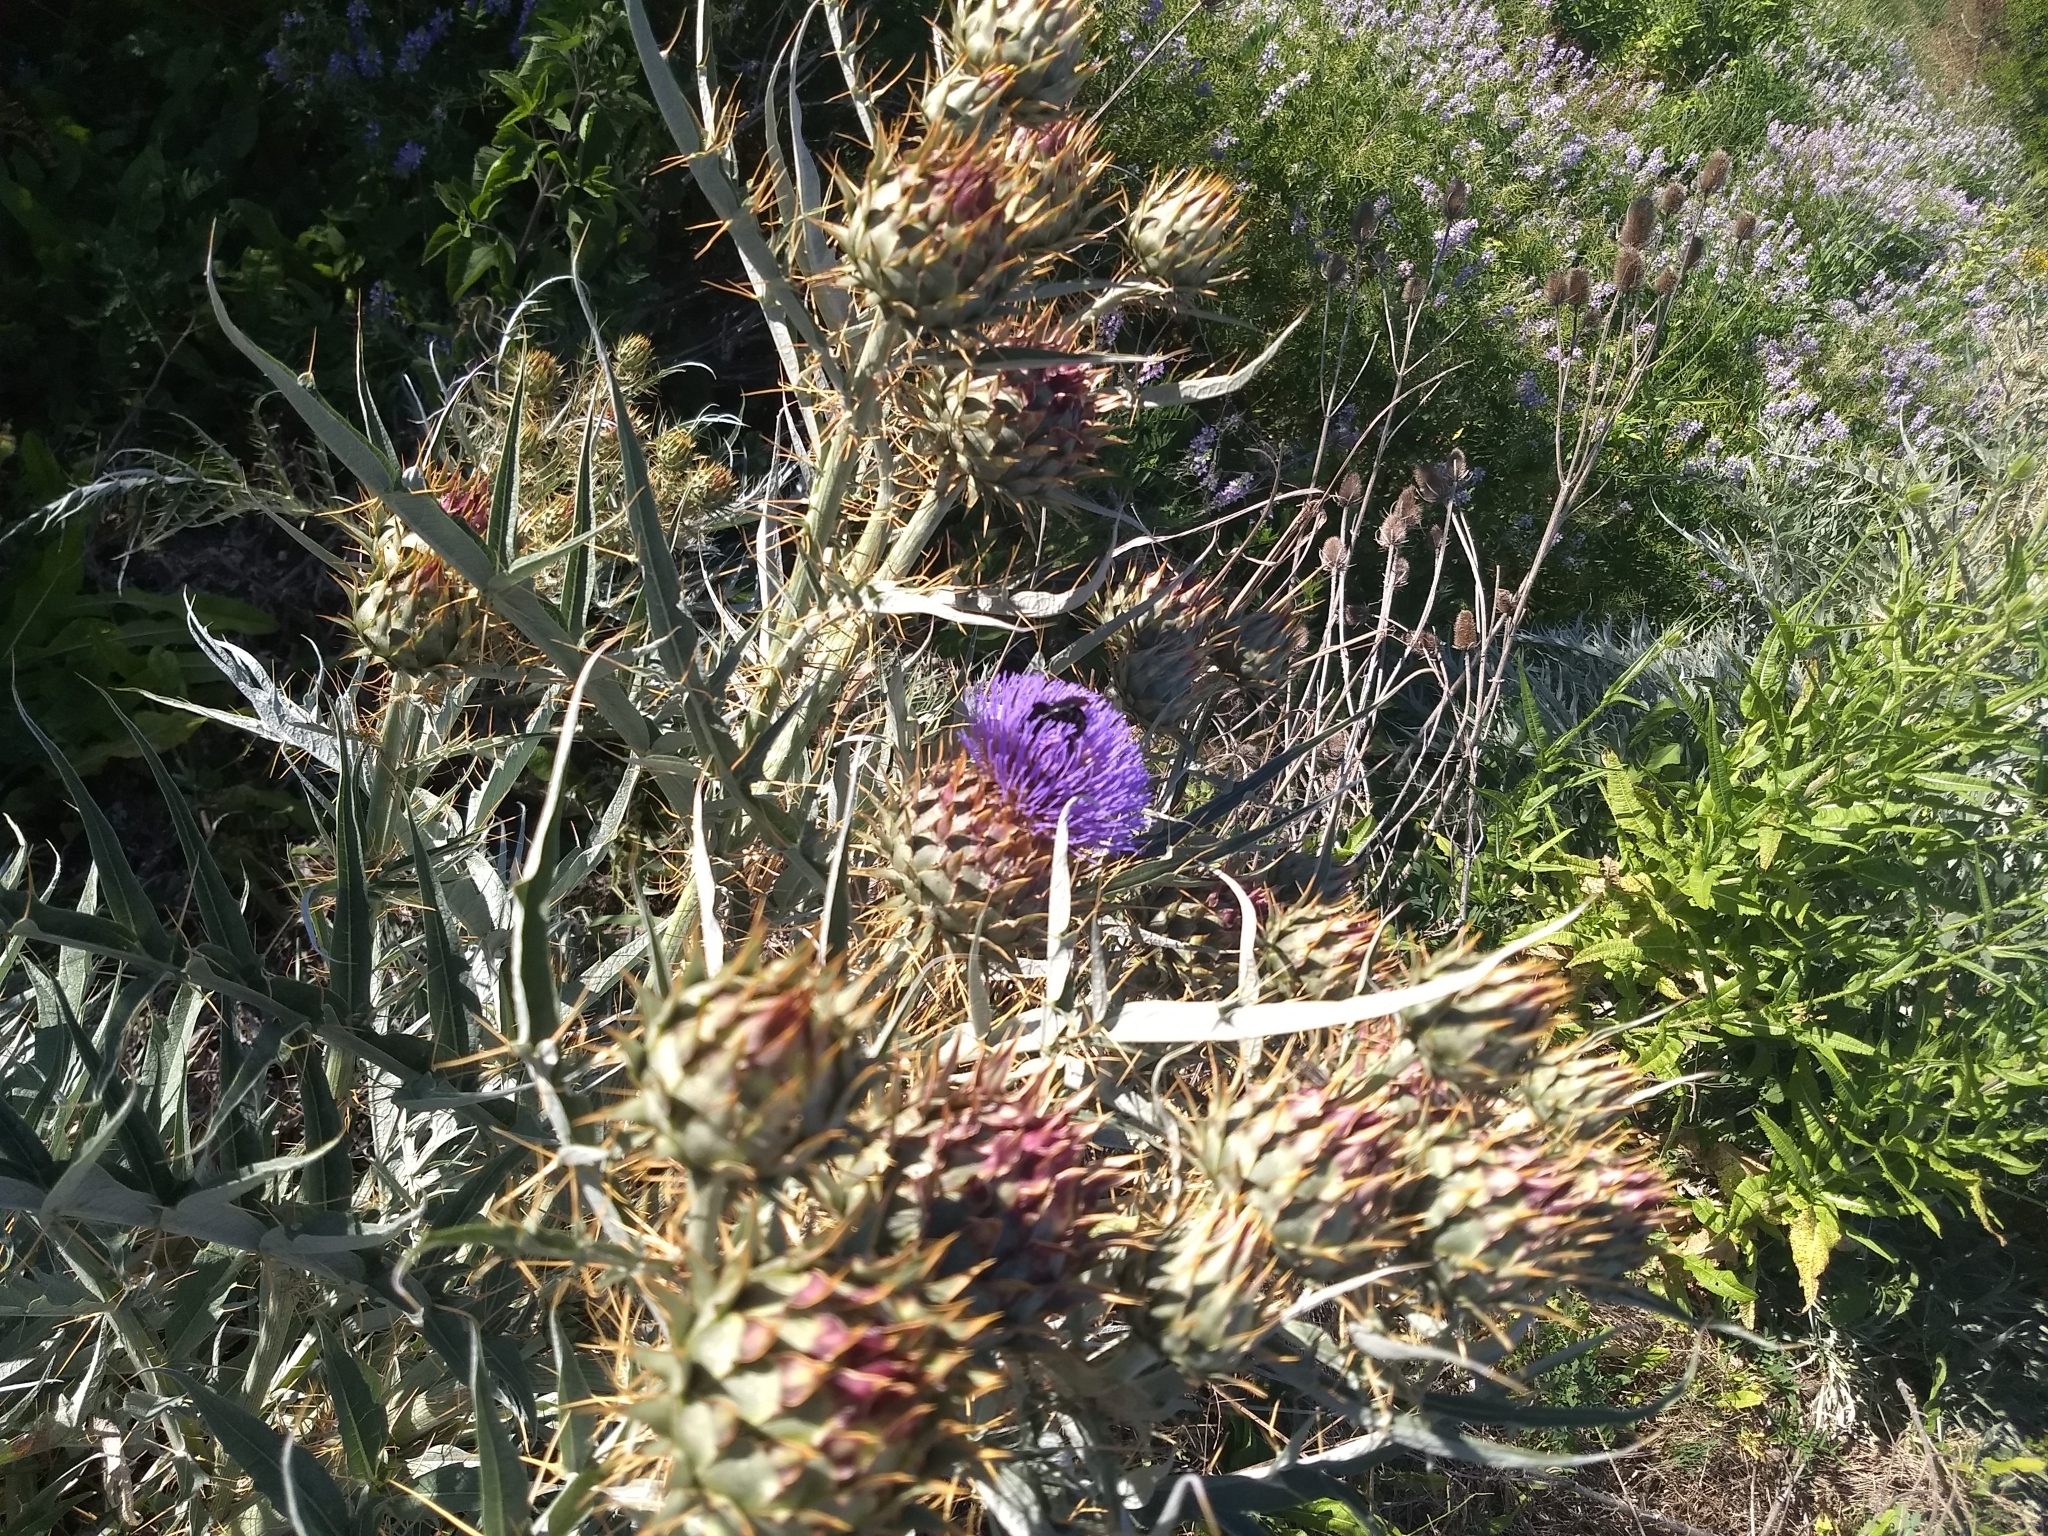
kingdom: Plantae
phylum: Tracheophyta
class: Magnoliopsida
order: Asterales
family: Asteraceae
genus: Cynara
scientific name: Cynara cardunculus
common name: Globe artichoke
